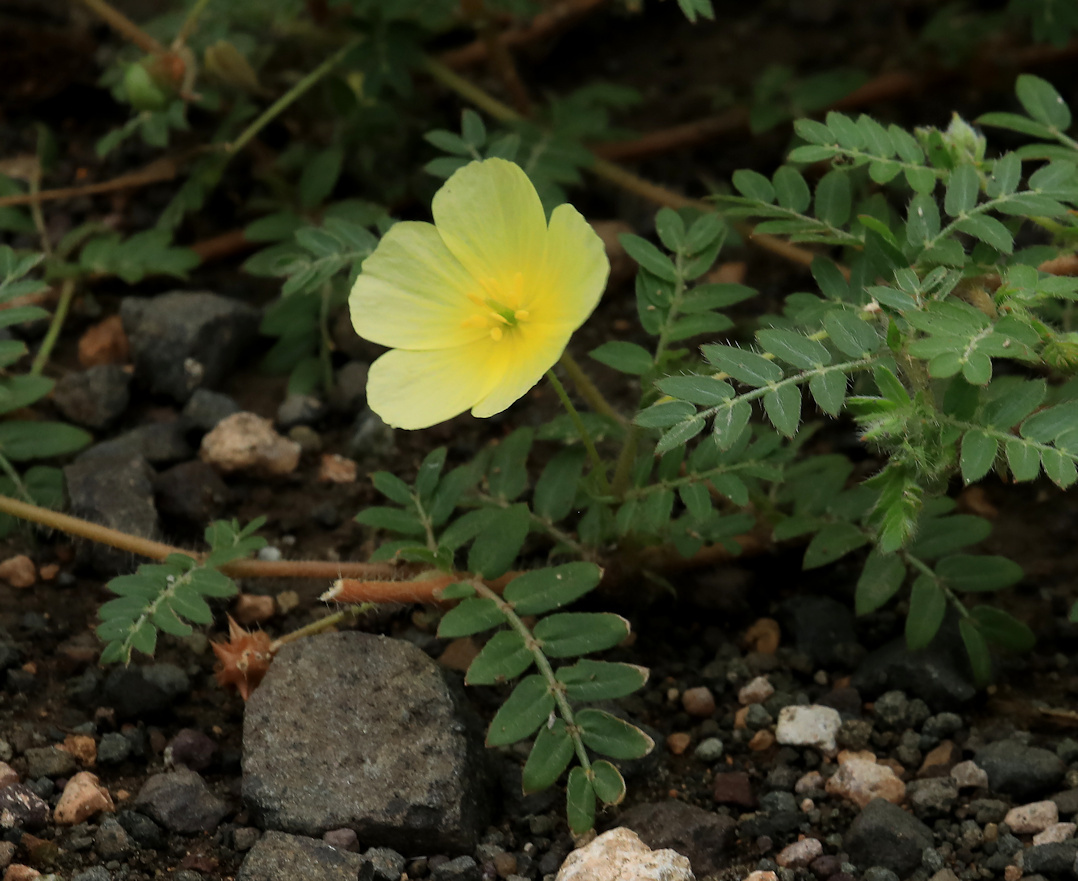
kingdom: Plantae
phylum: Tracheophyta
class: Magnoliopsida
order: Zygophyllales
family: Zygophyllaceae
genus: Tribulus
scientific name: Tribulus zeyheri
